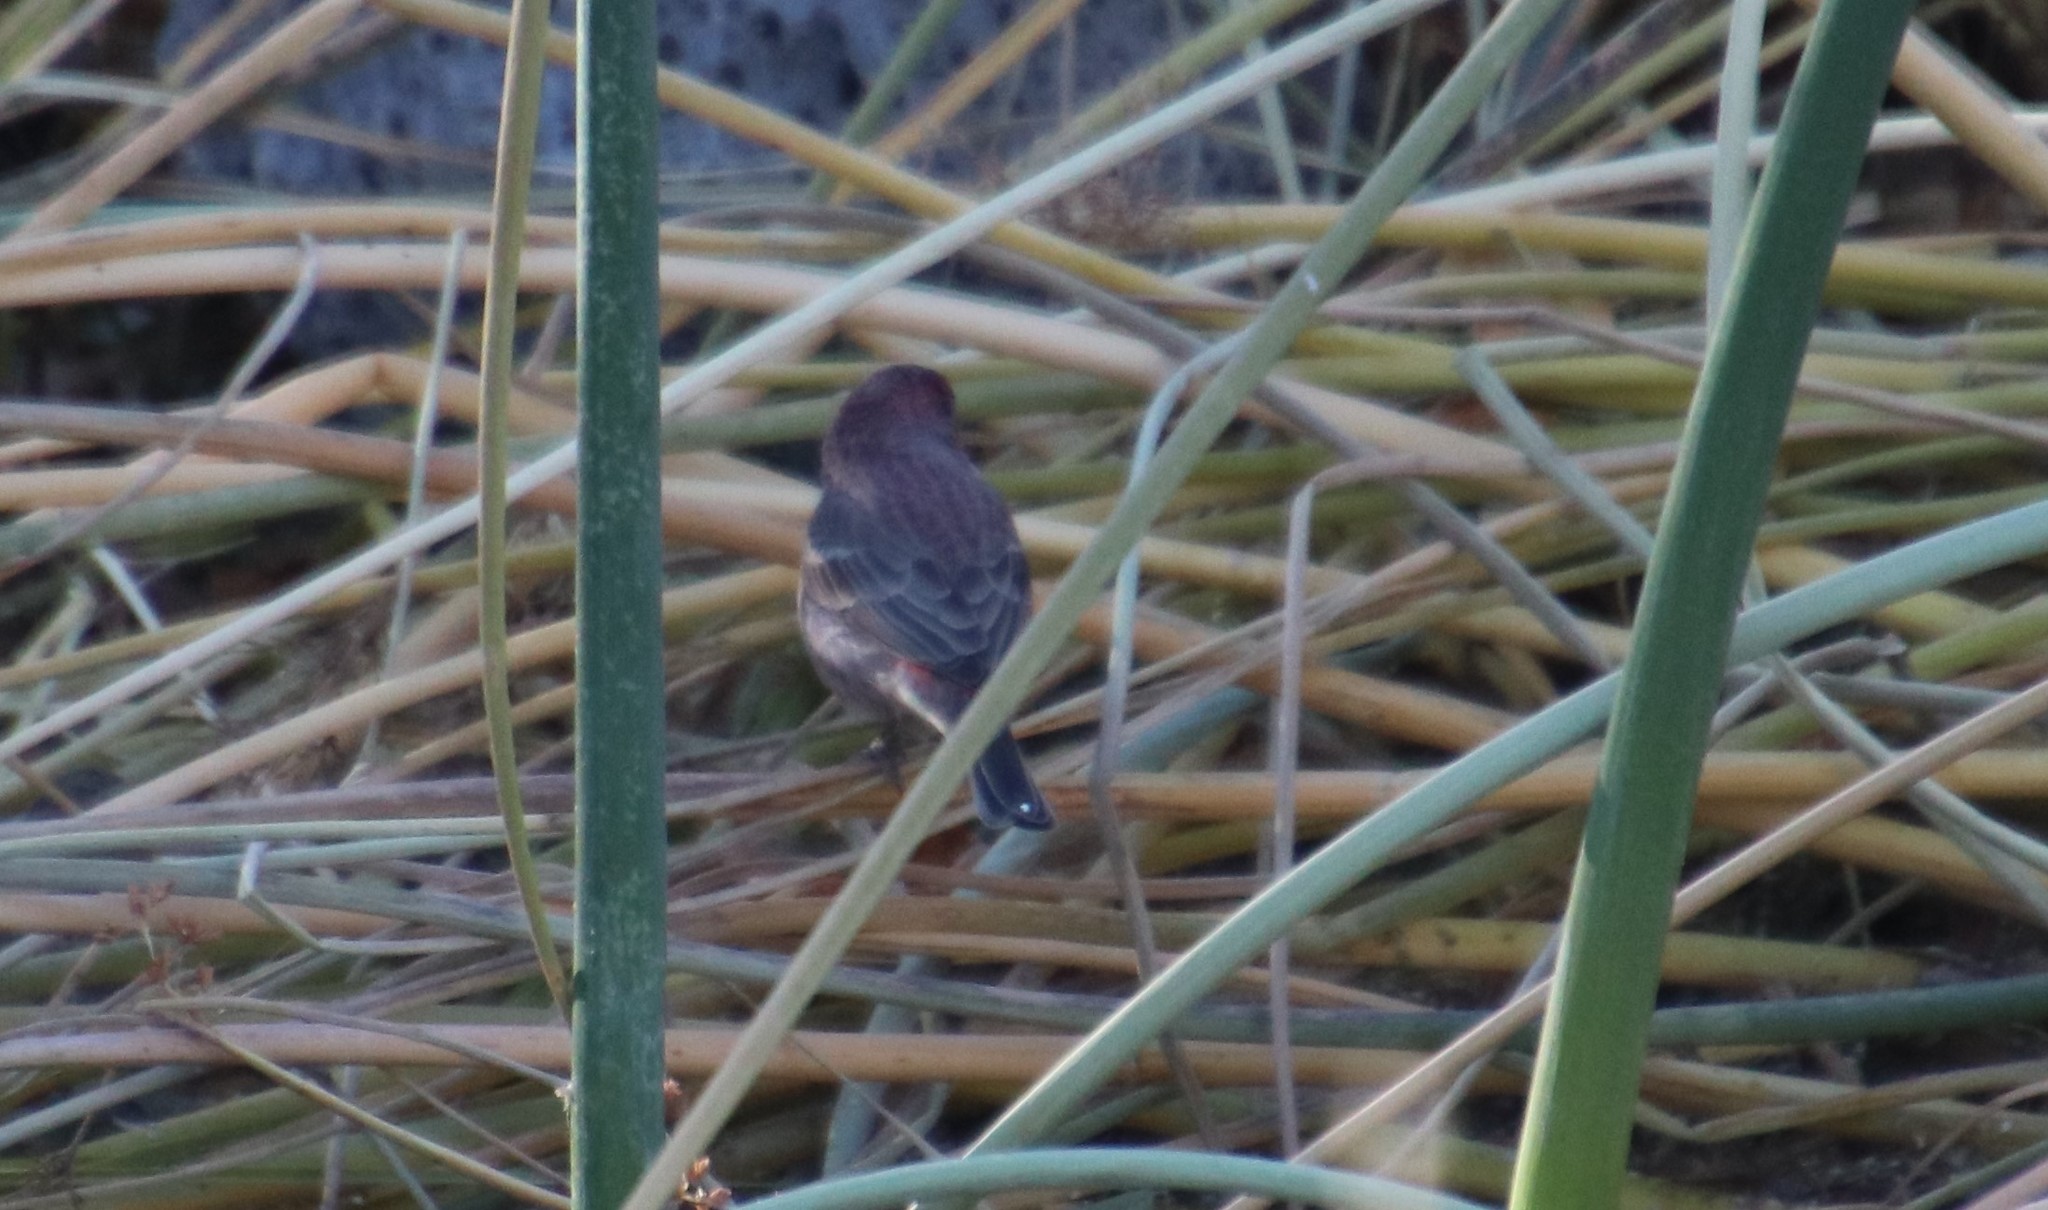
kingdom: Animalia
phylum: Chordata
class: Aves
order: Passeriformes
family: Fringillidae
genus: Haemorhous
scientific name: Haemorhous mexicanus
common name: House finch
